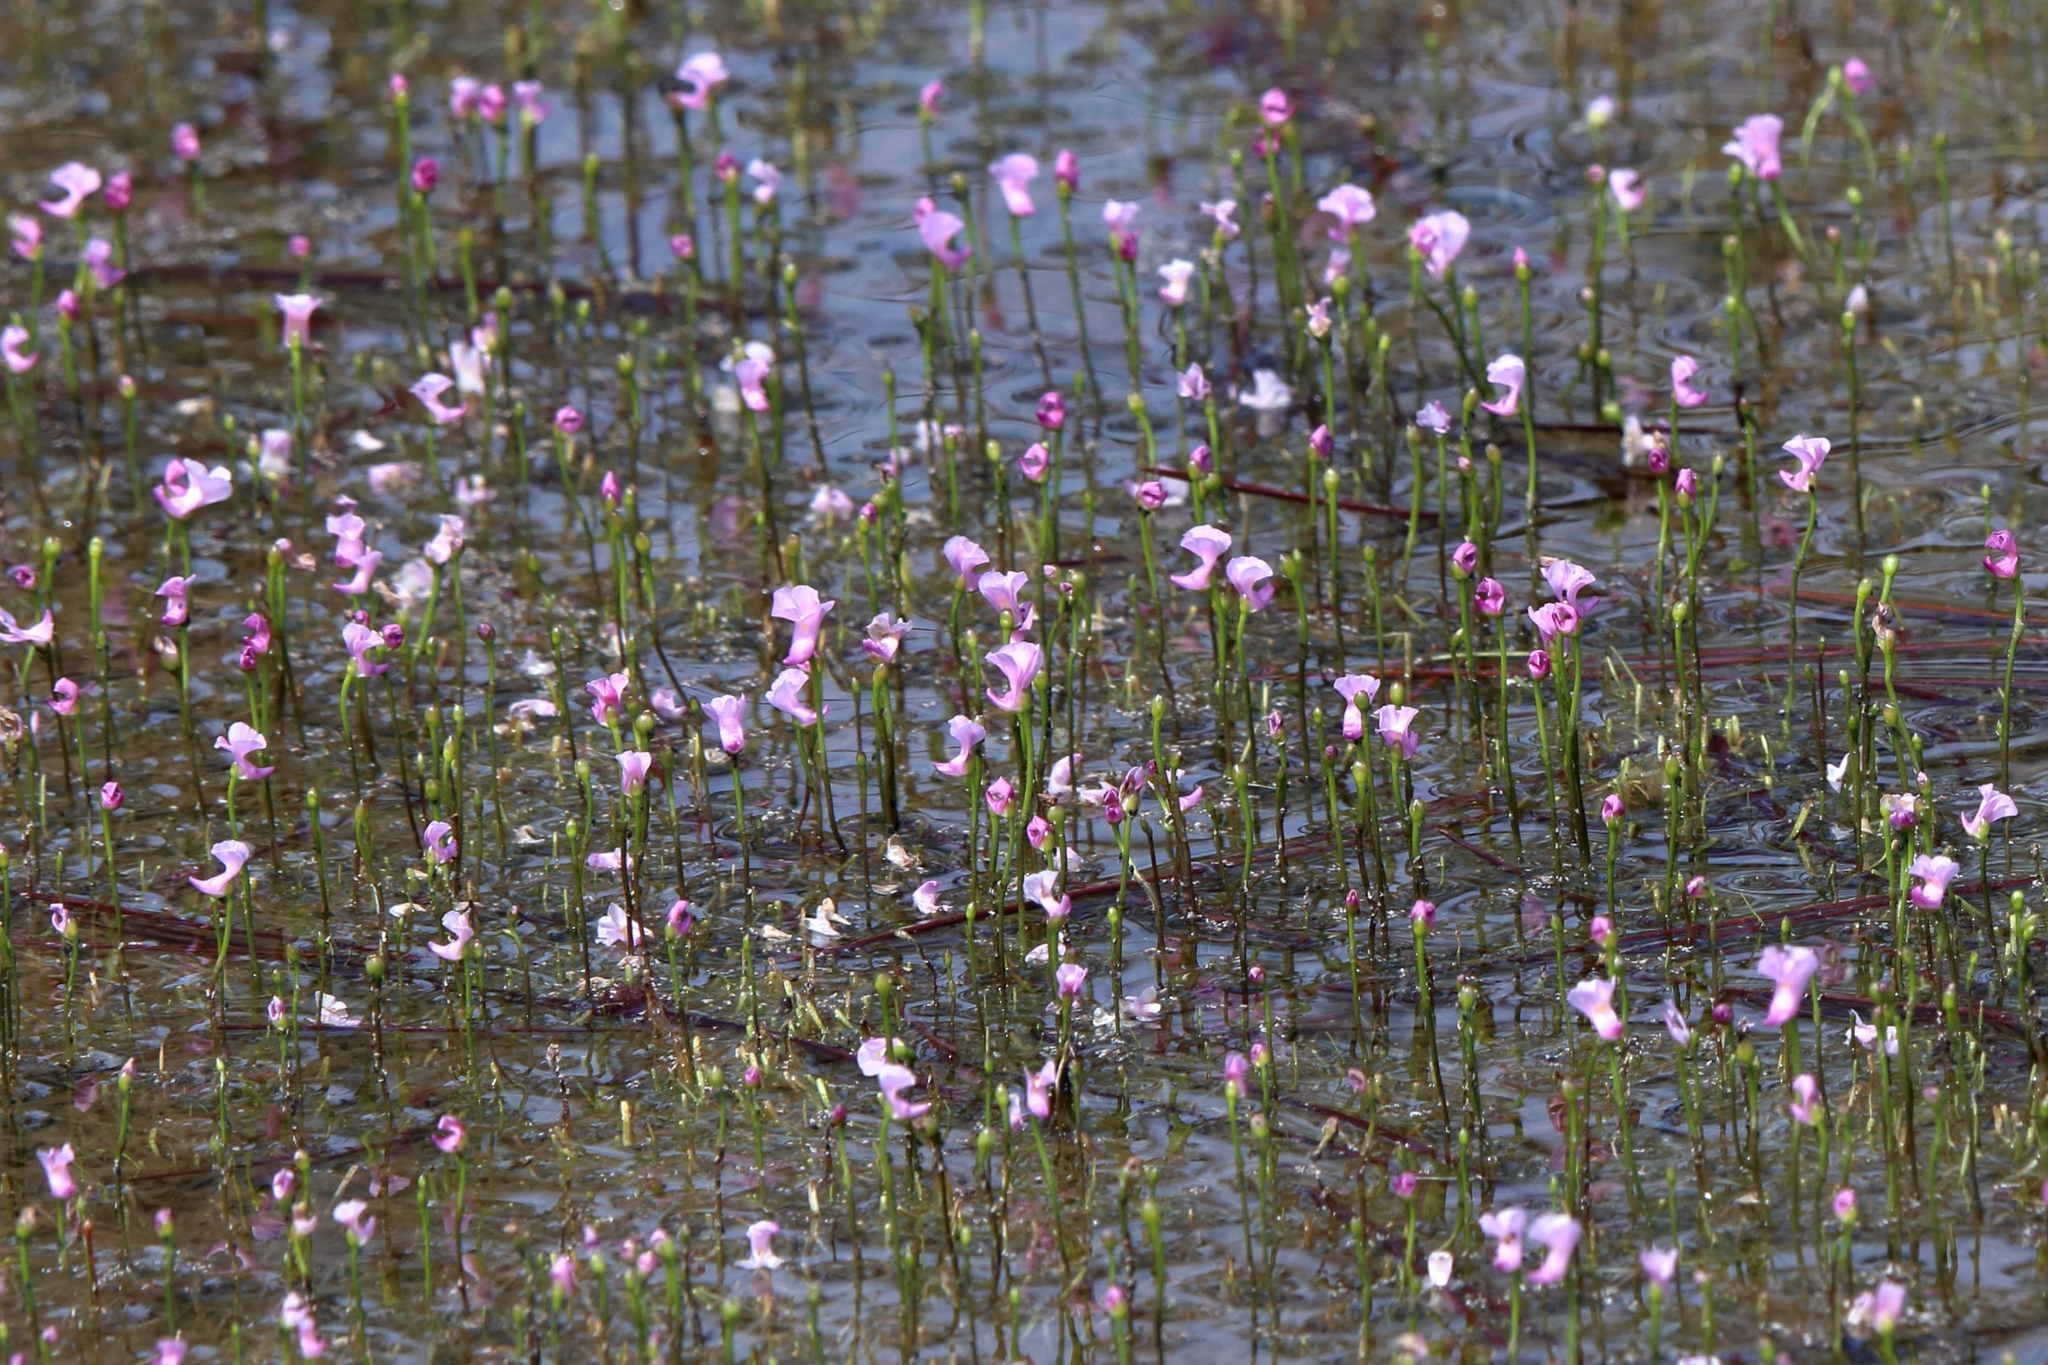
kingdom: Plantae
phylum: Tracheophyta
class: Magnoliopsida
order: Lamiales
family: Lentibulariaceae
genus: Utricularia
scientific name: Utricularia resupinata
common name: Northeastern bladderwort
